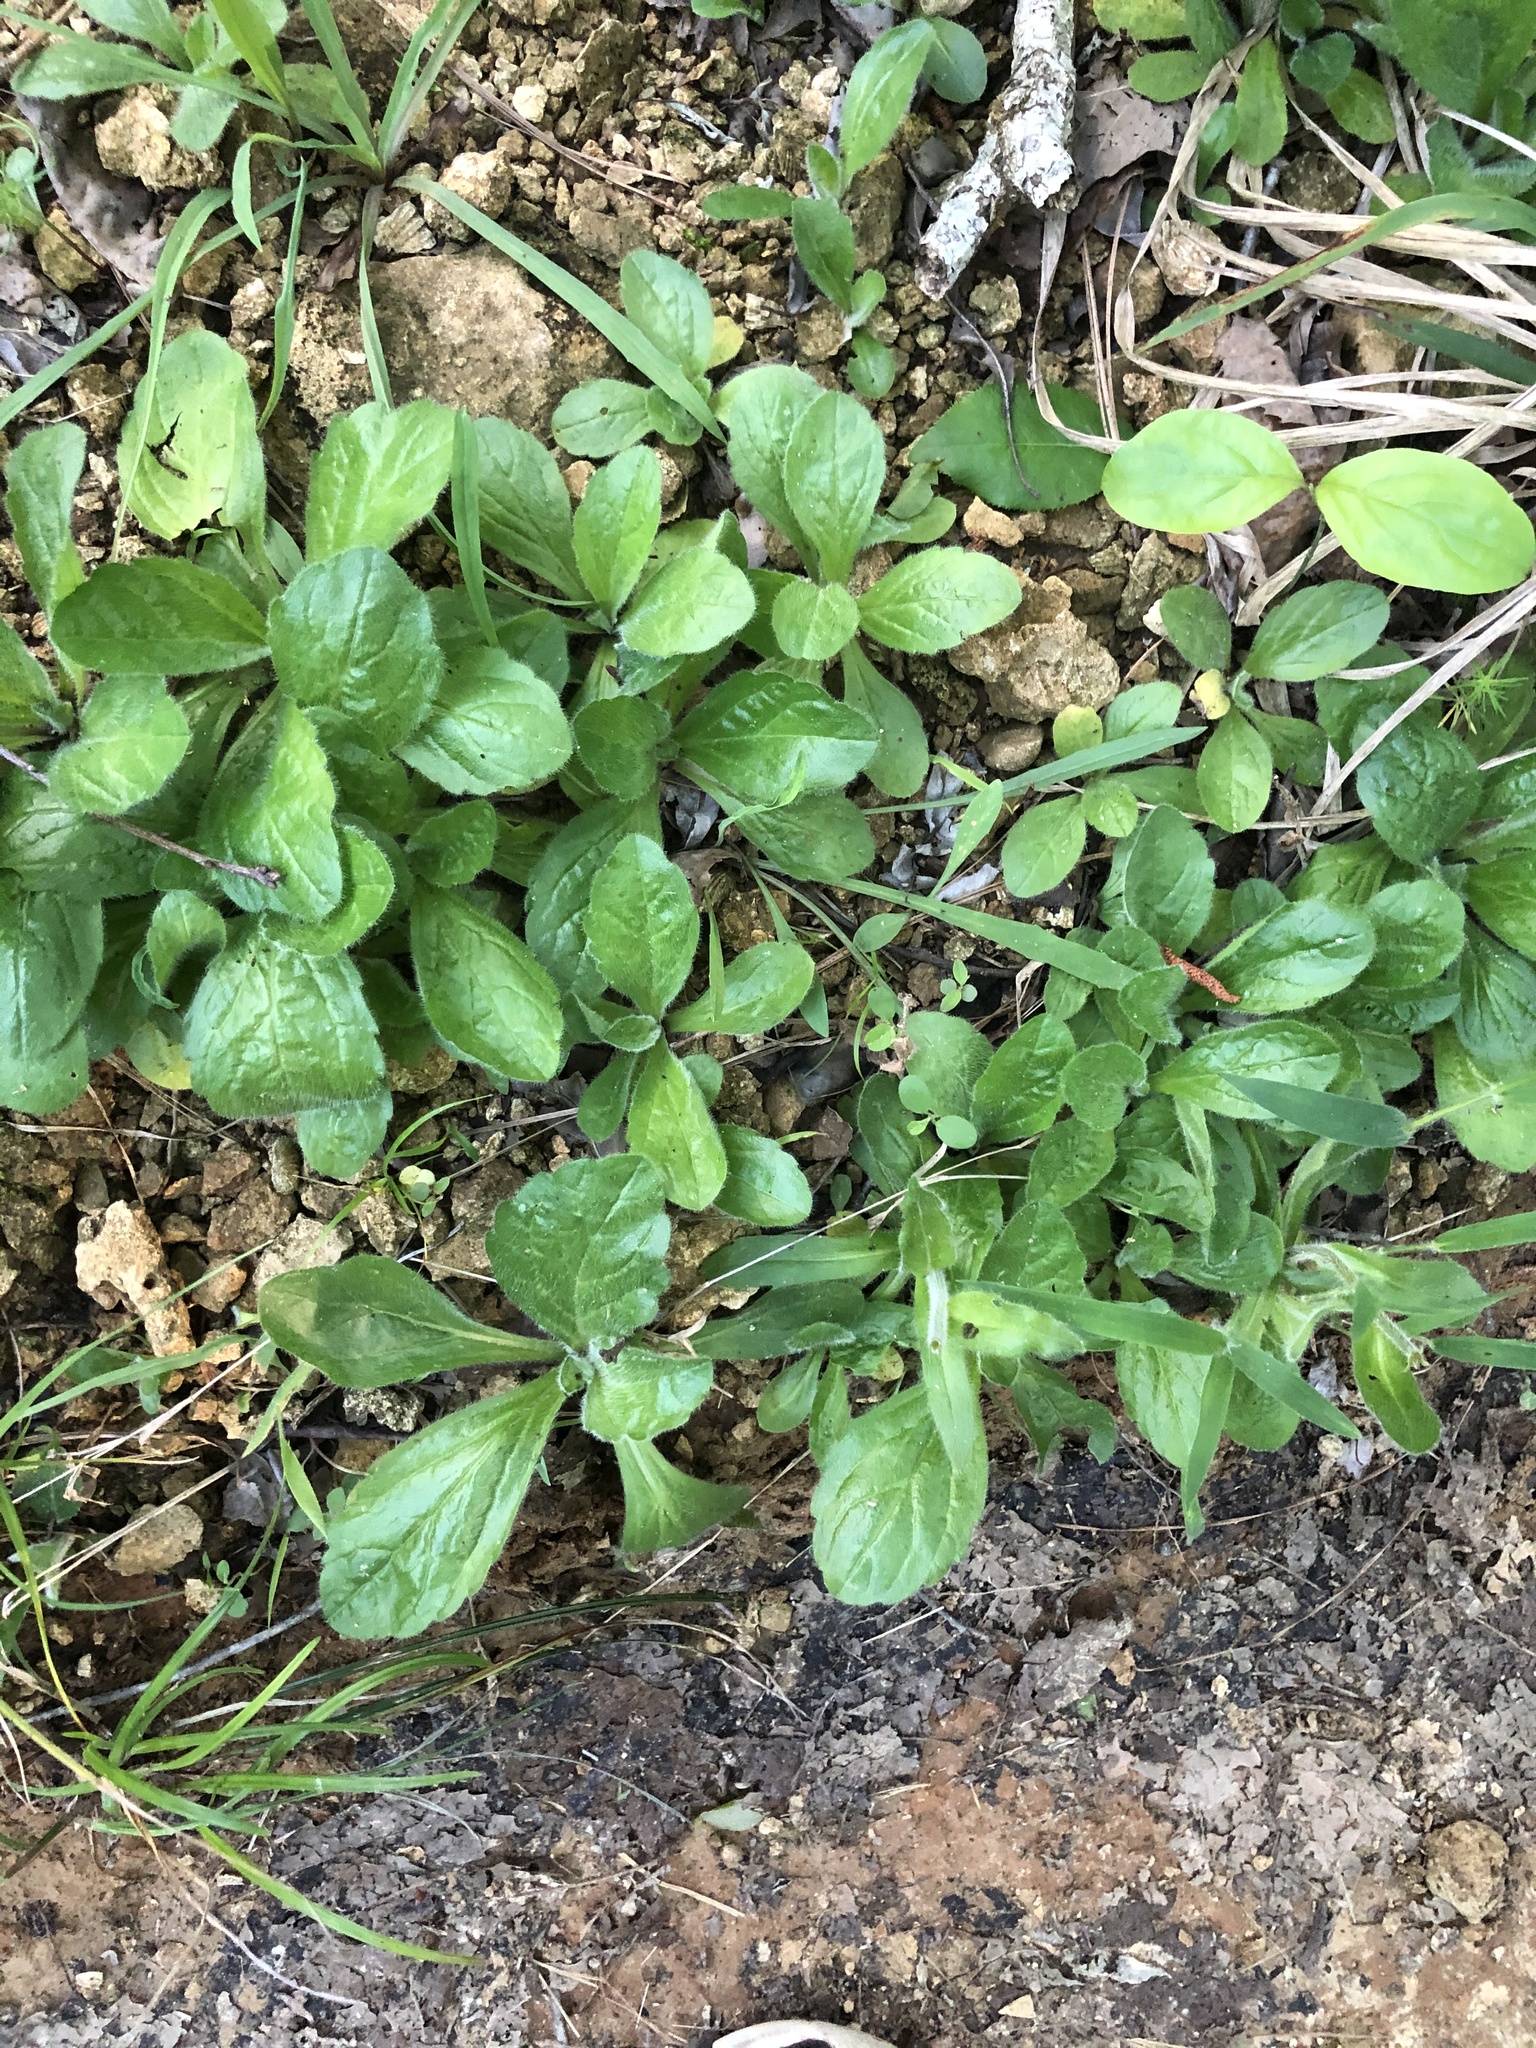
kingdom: Plantae
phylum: Tracheophyta
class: Magnoliopsida
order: Asterales
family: Asteraceae
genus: Erigeron
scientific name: Erigeron pulchellus
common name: Hairy fleabane
